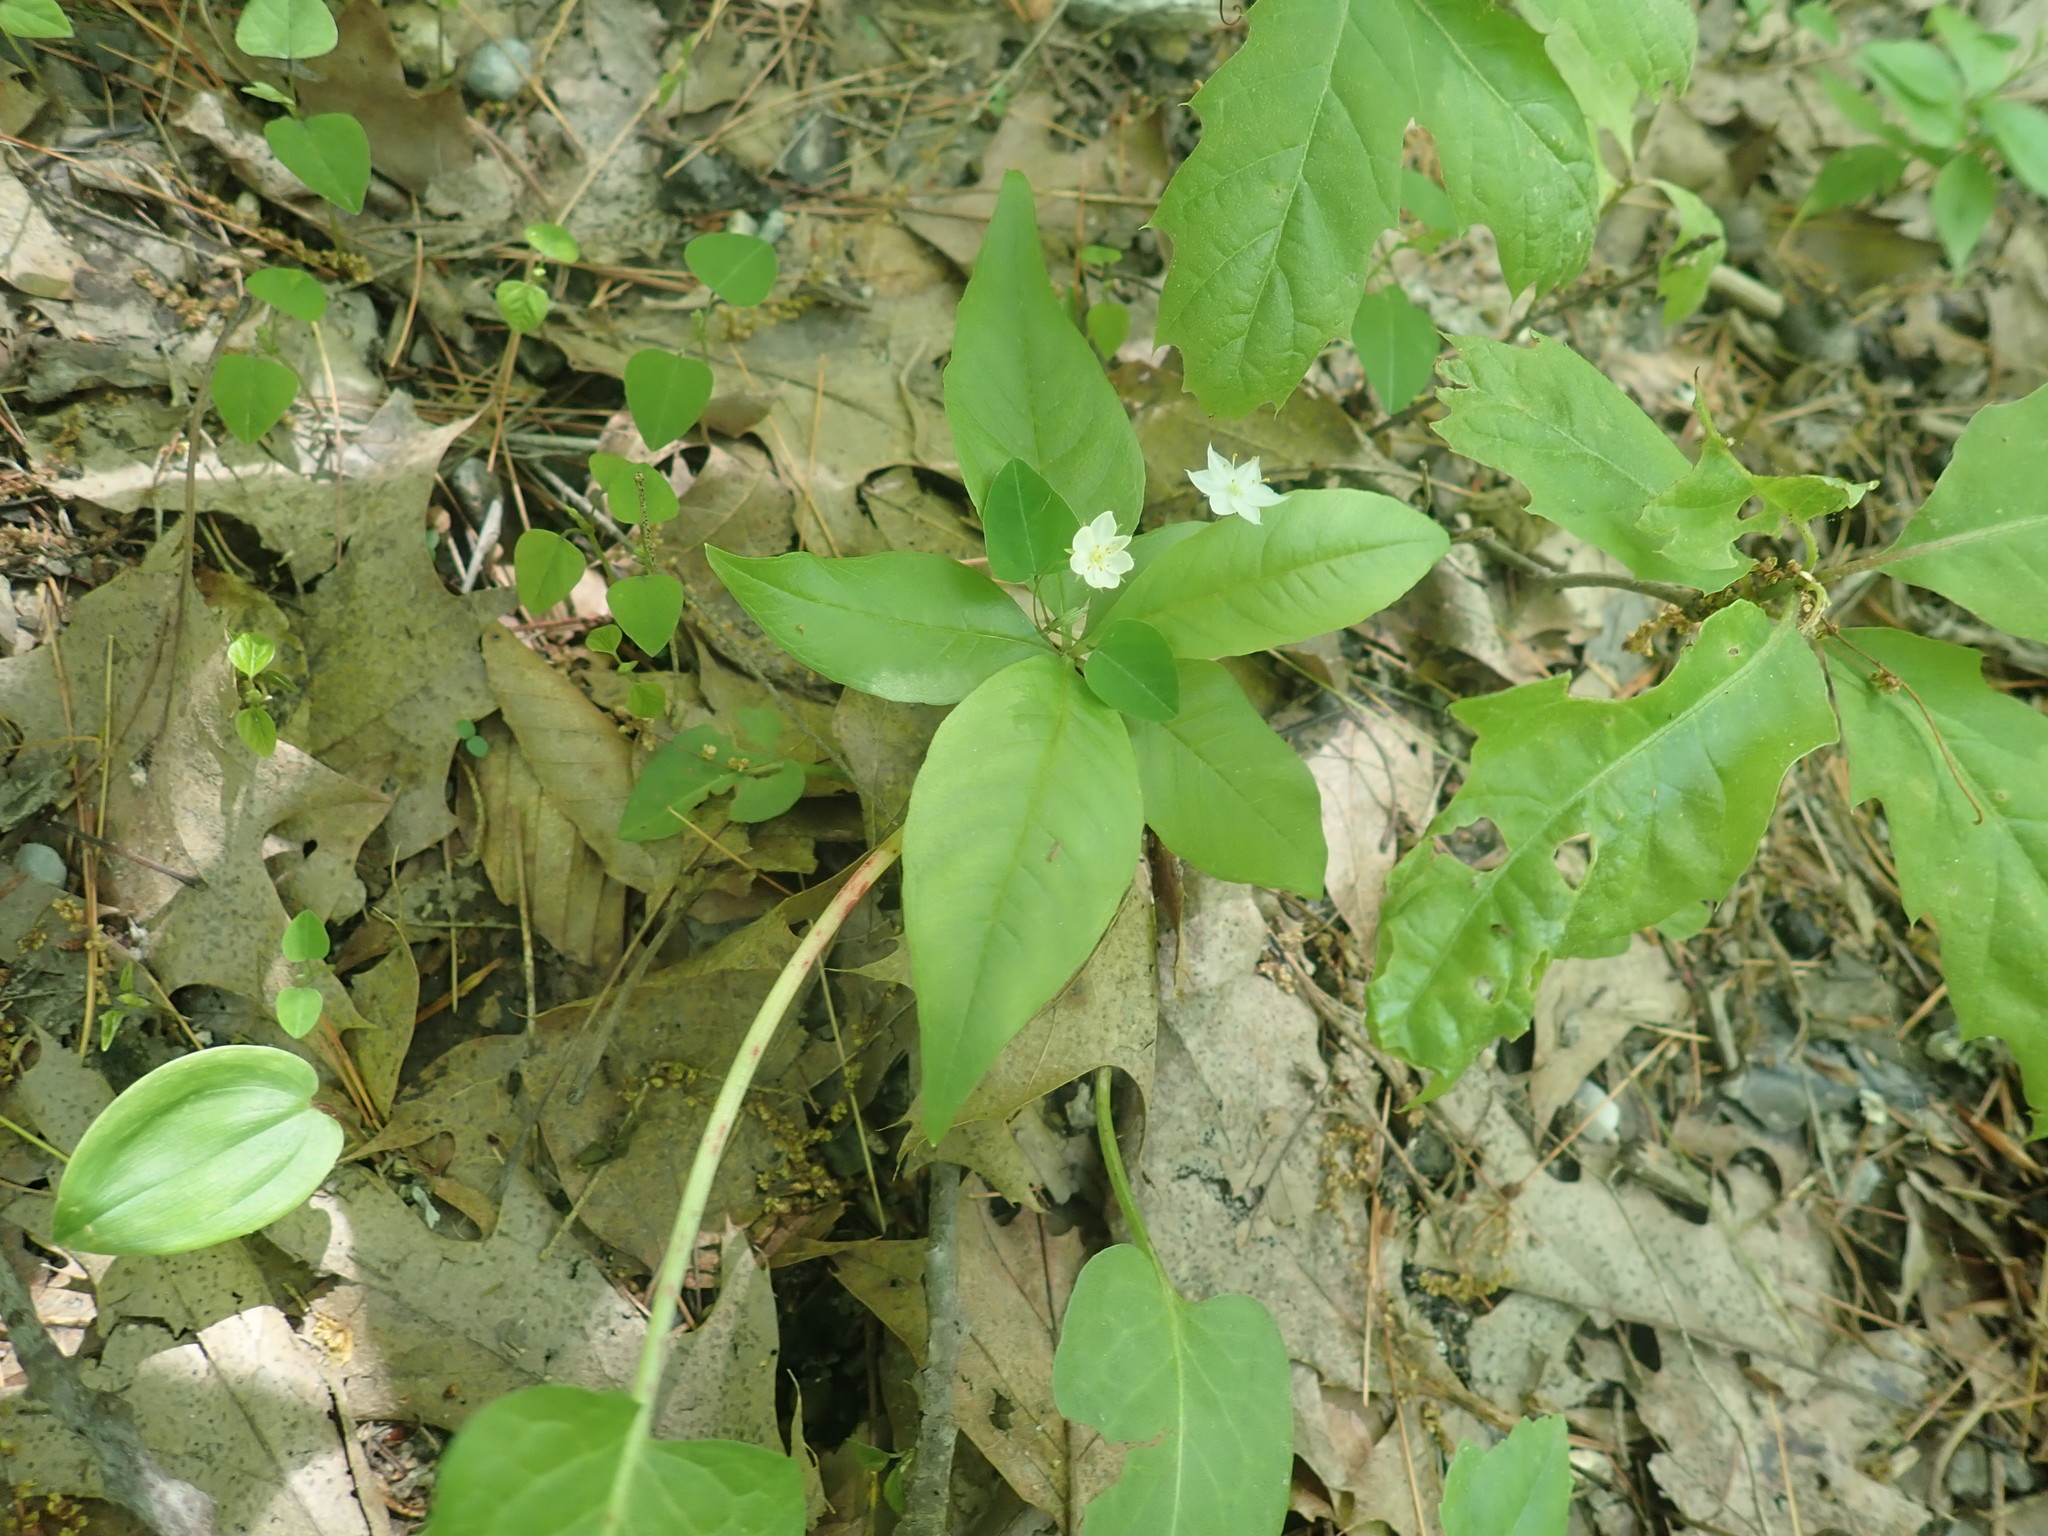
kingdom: Plantae
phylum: Tracheophyta
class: Magnoliopsida
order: Ericales
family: Primulaceae
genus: Lysimachia
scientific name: Lysimachia borealis
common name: American starflower
